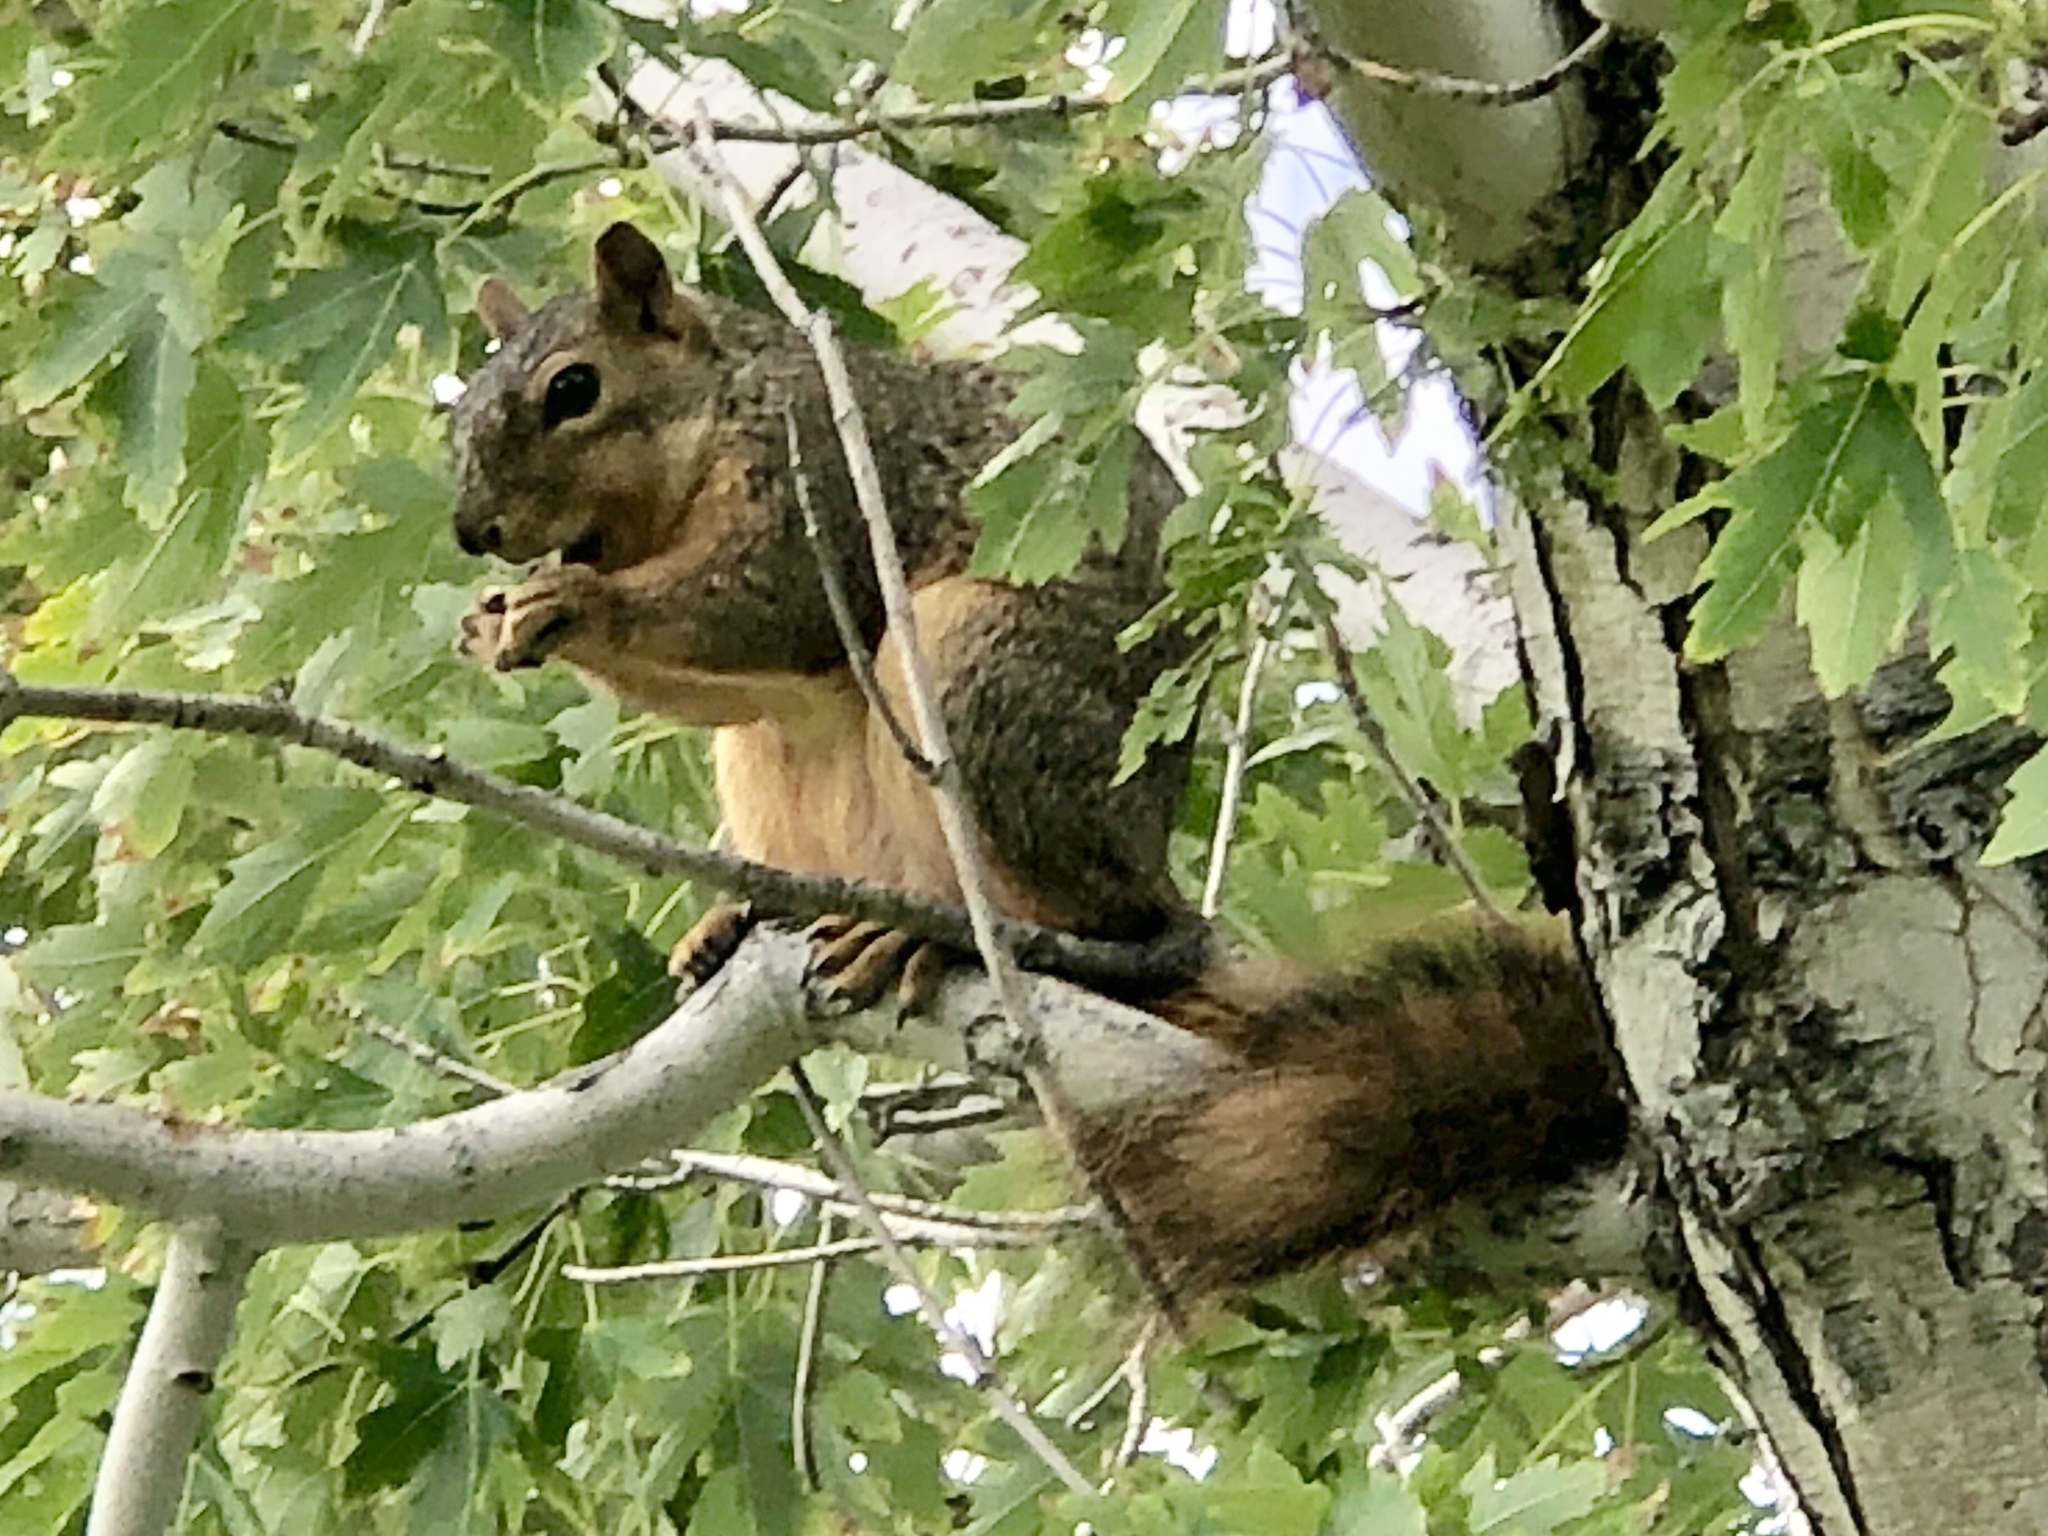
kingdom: Animalia
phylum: Chordata
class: Mammalia
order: Rodentia
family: Sciuridae
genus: Sciurus
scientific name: Sciurus niger
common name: Fox squirrel
